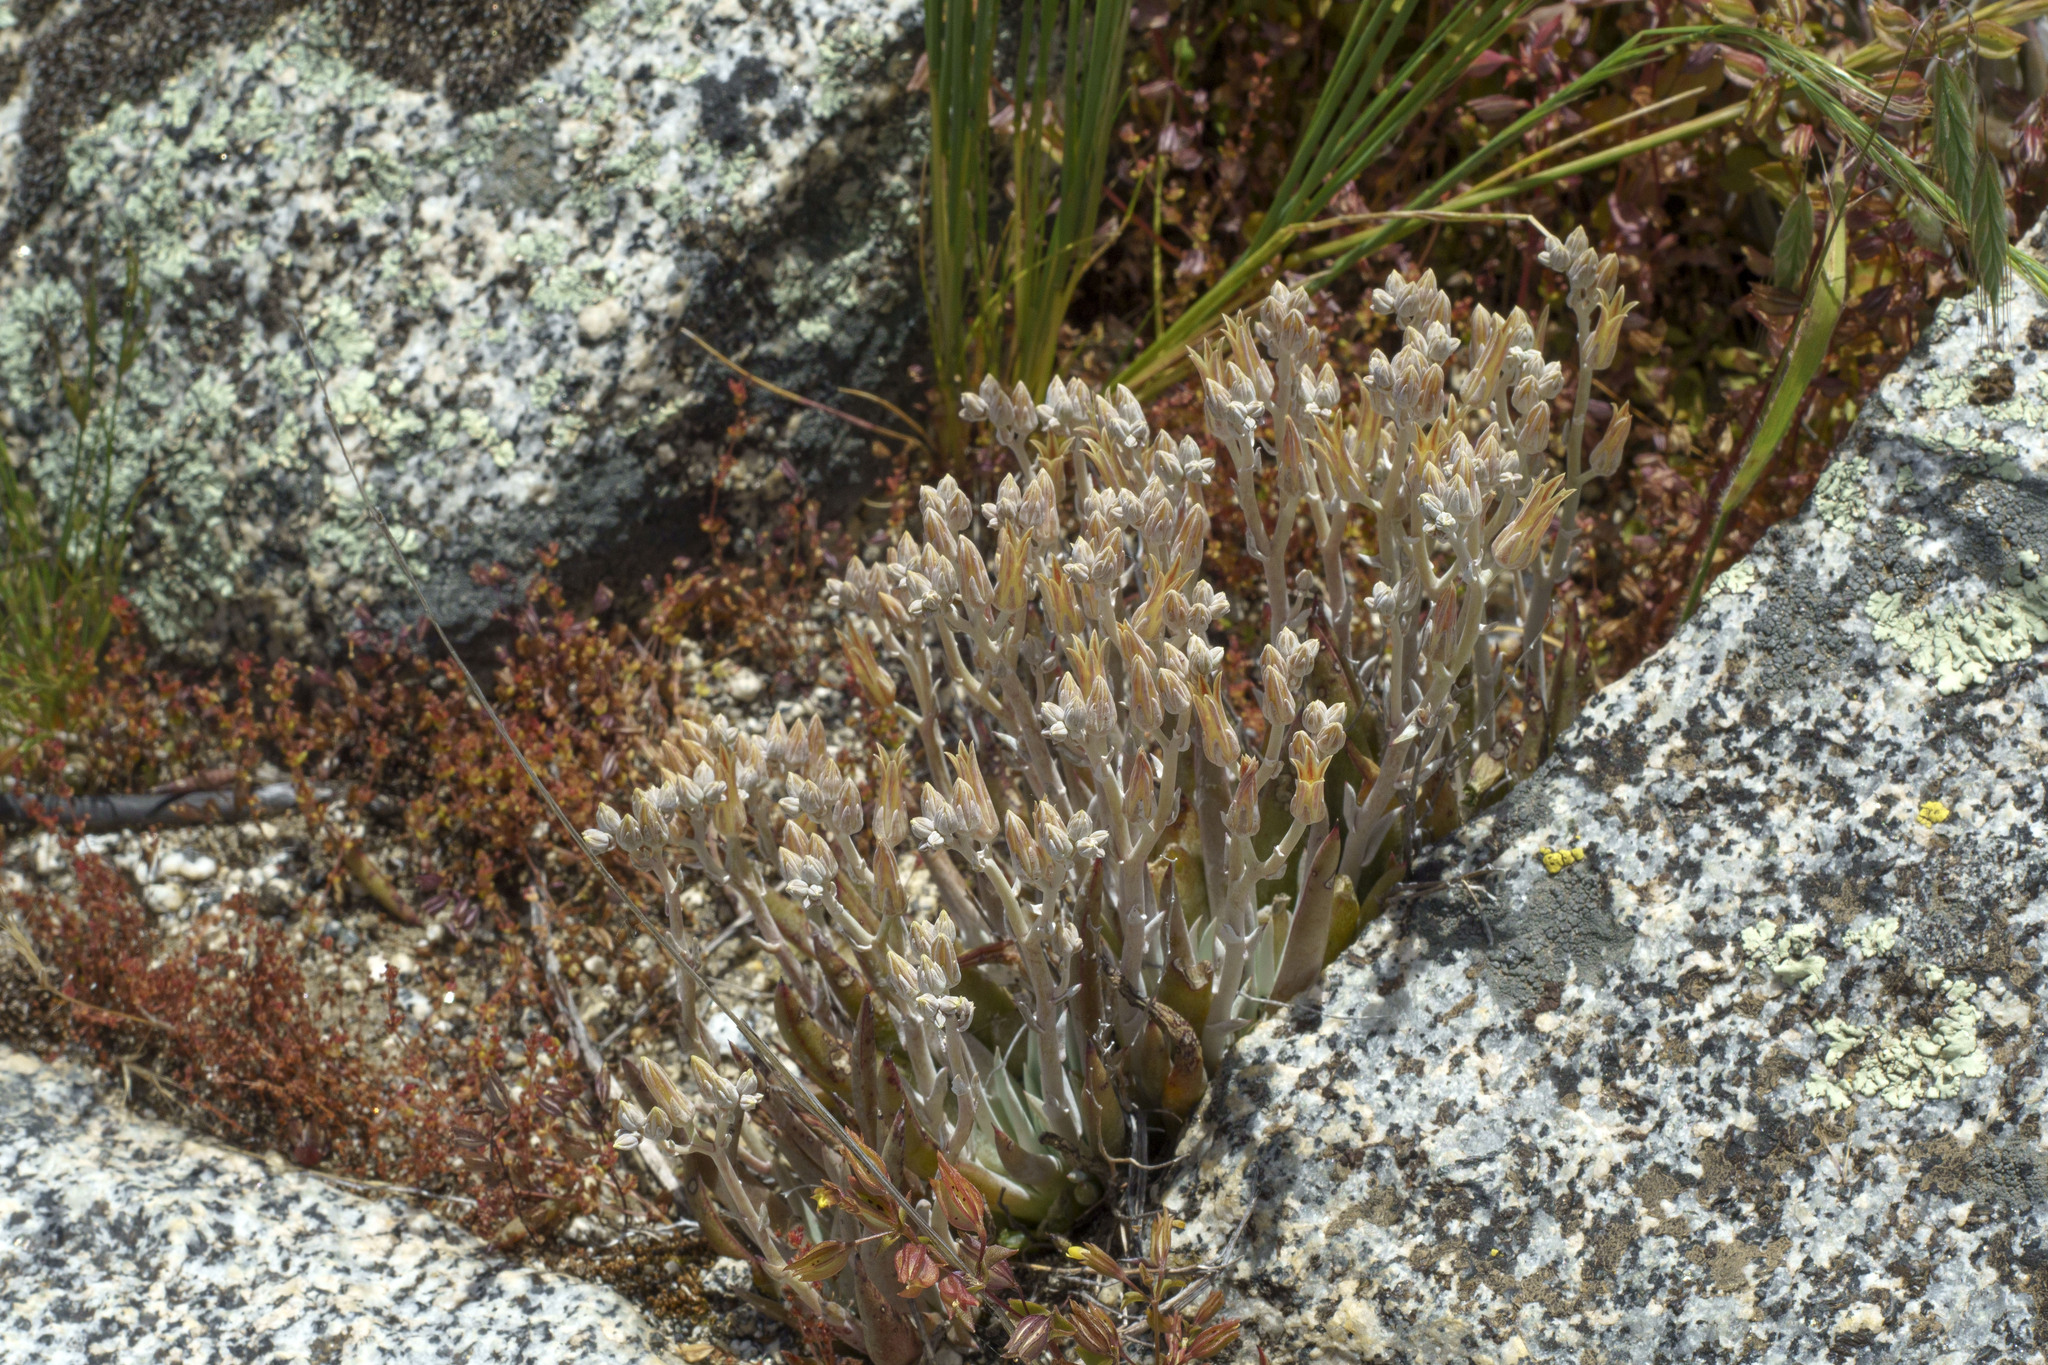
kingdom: Plantae
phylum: Tracheophyta
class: Magnoliopsida
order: Saxifragales
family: Crassulaceae
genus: Dudleya
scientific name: Dudleya abramsii
